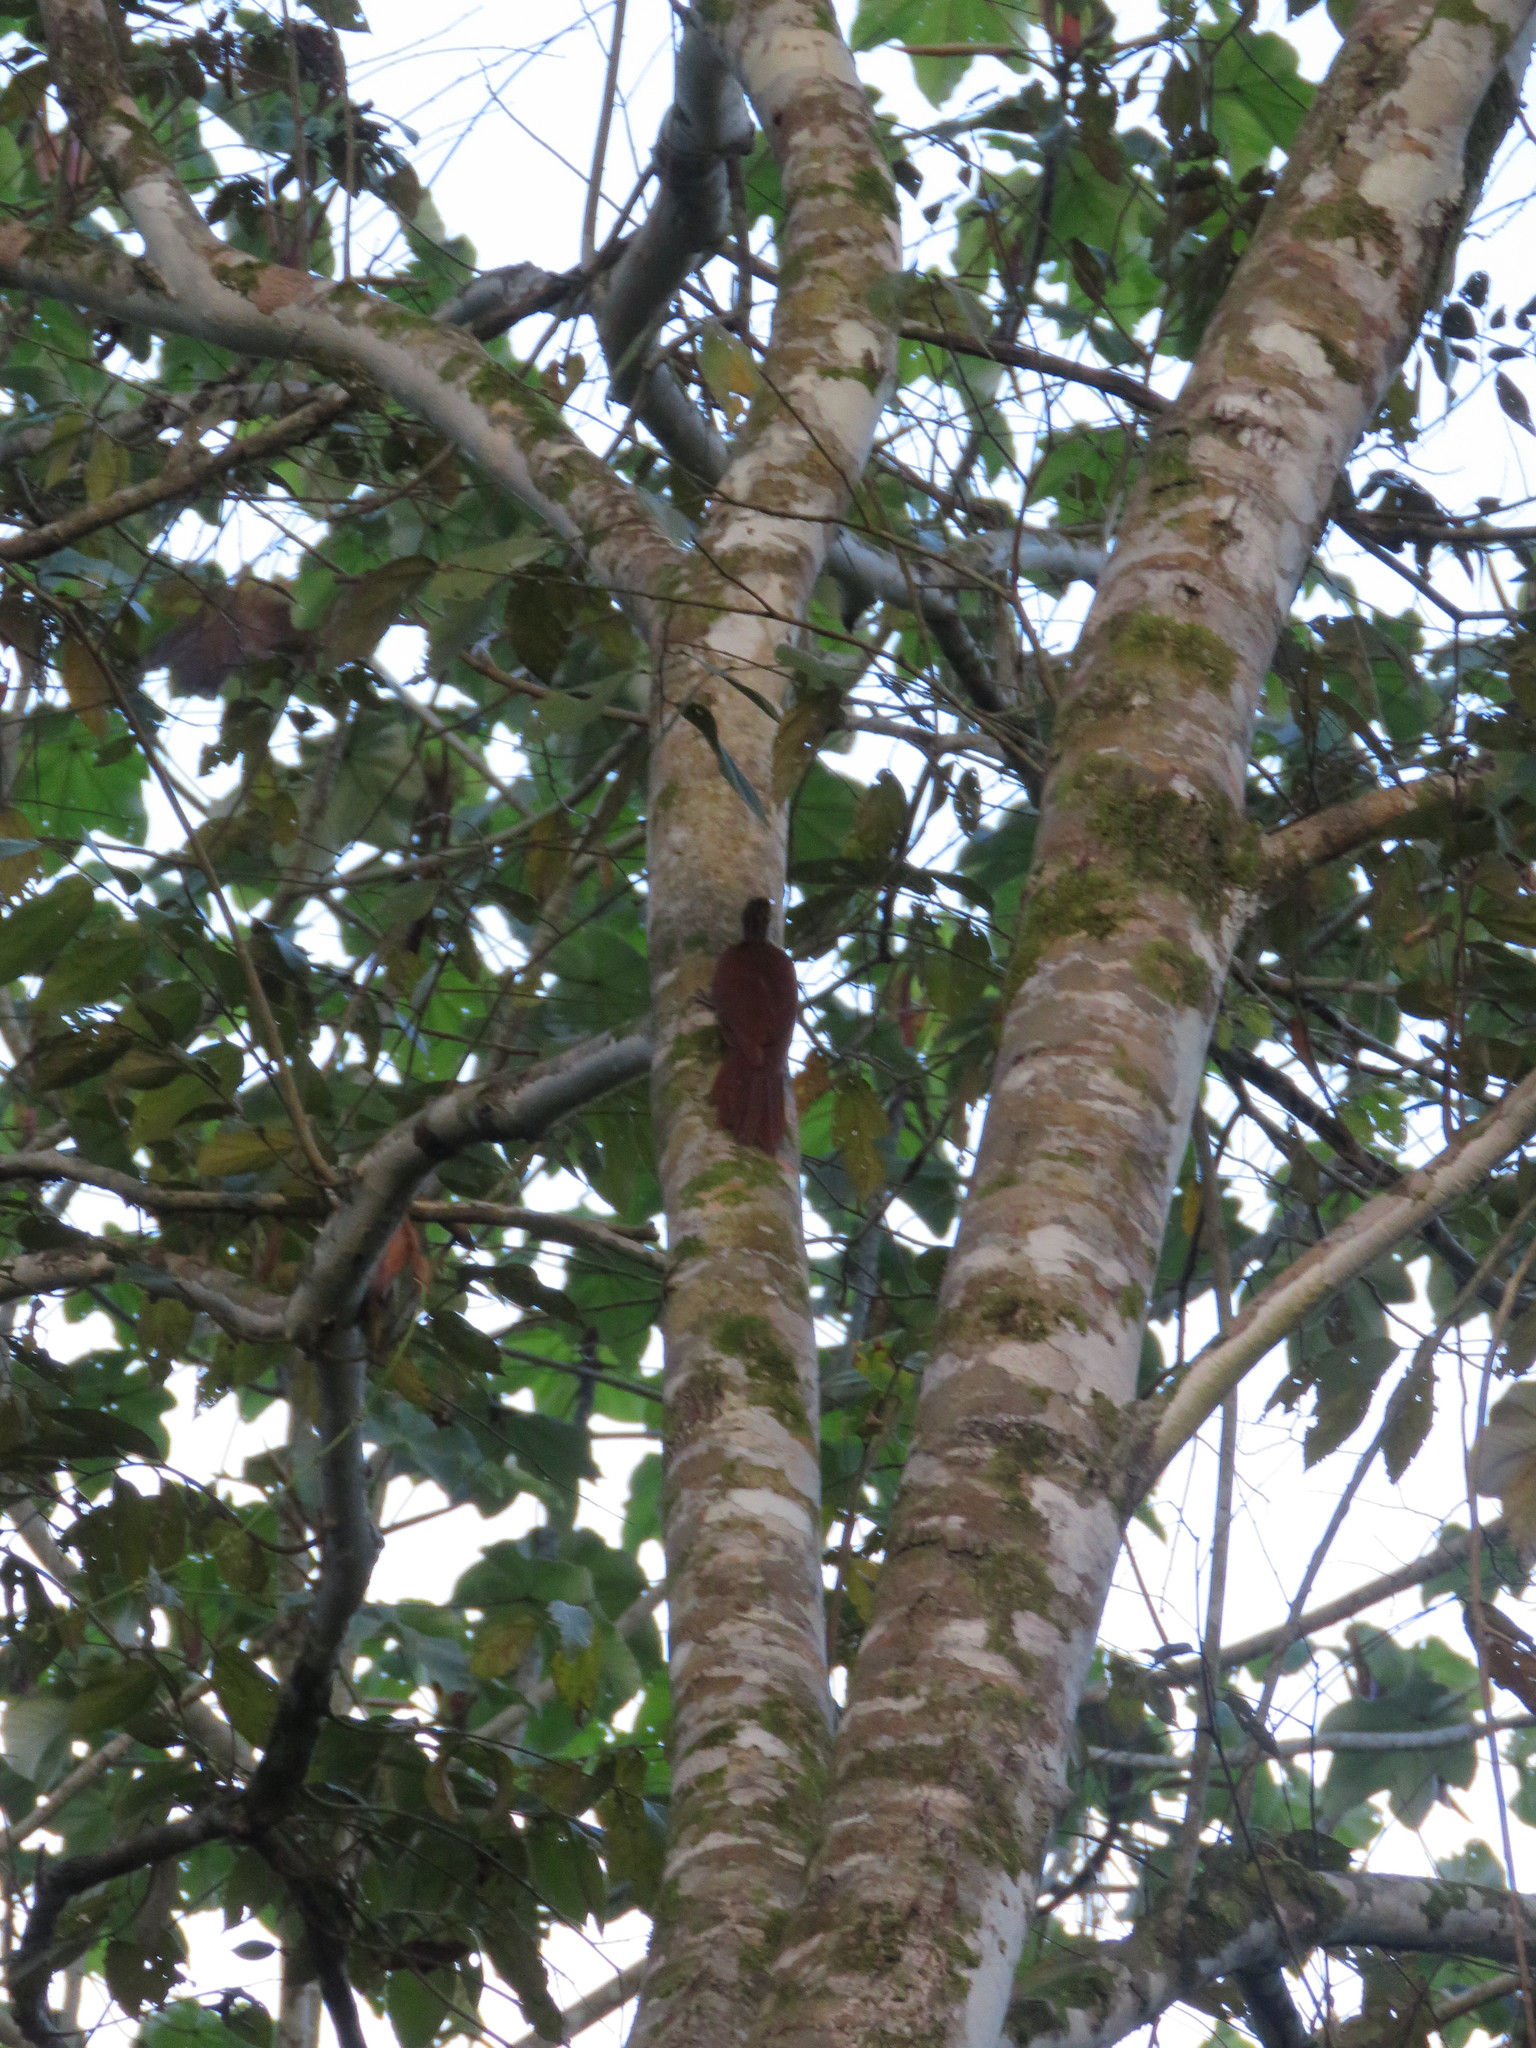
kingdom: Animalia
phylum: Chordata
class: Aves
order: Passeriformes
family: Furnariidae
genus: Nasica
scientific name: Nasica longirostris
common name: Long-billed woodcreeper
